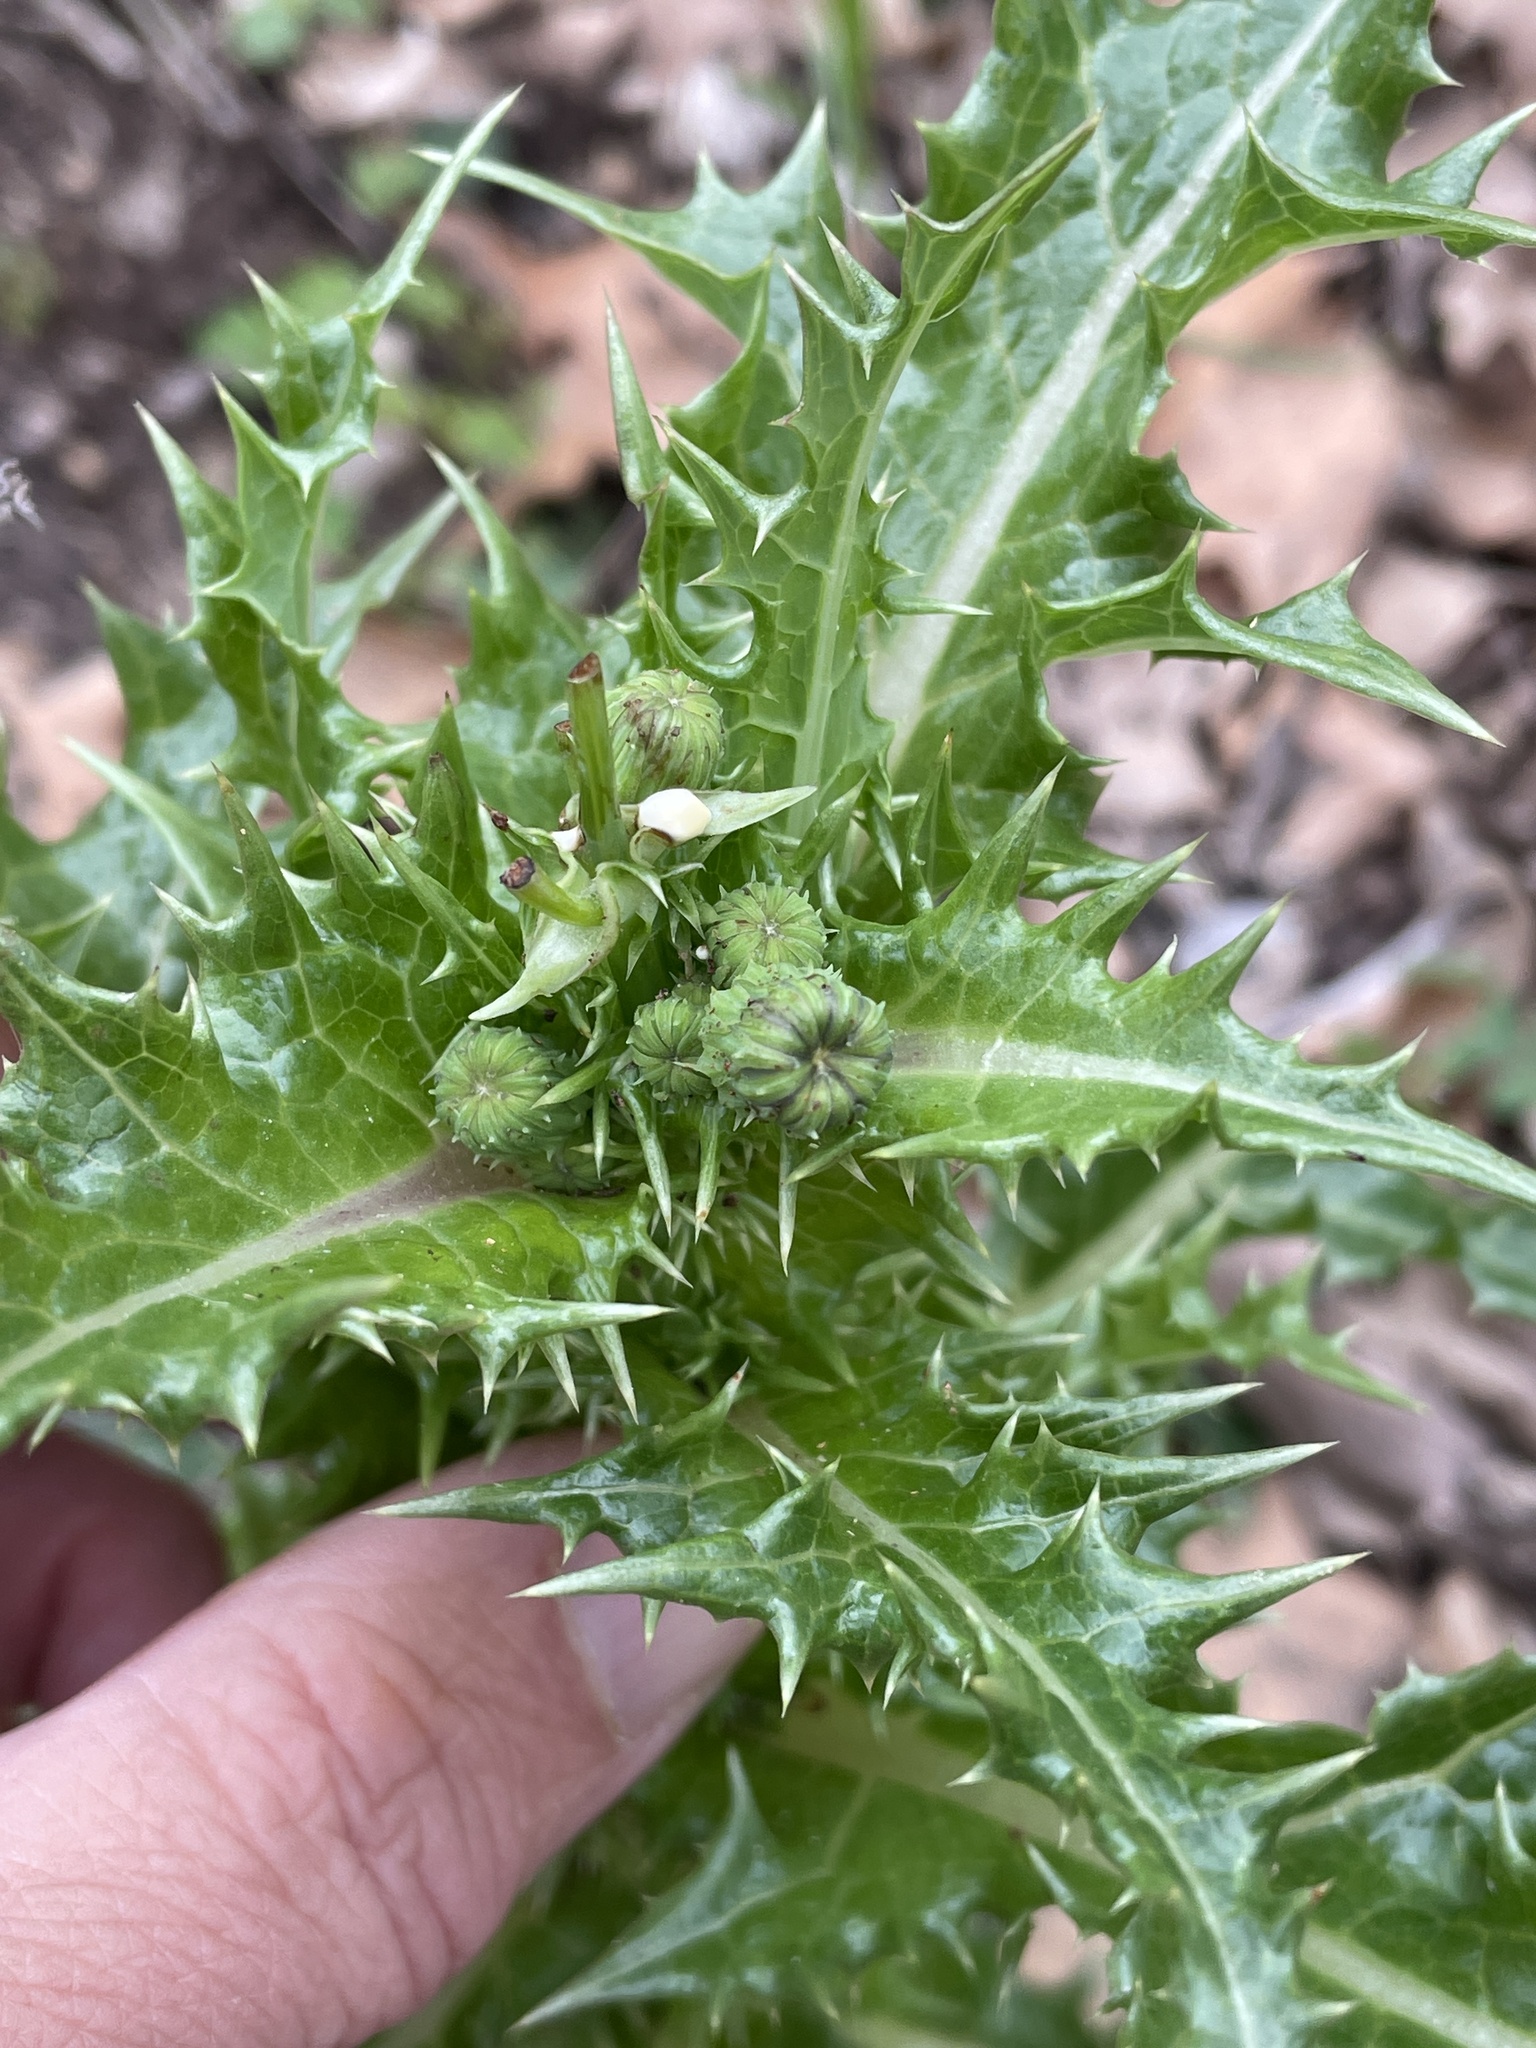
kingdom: Plantae
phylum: Tracheophyta
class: Magnoliopsida
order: Asterales
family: Asteraceae
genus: Sonchus
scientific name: Sonchus asper
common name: Prickly sow-thistle
